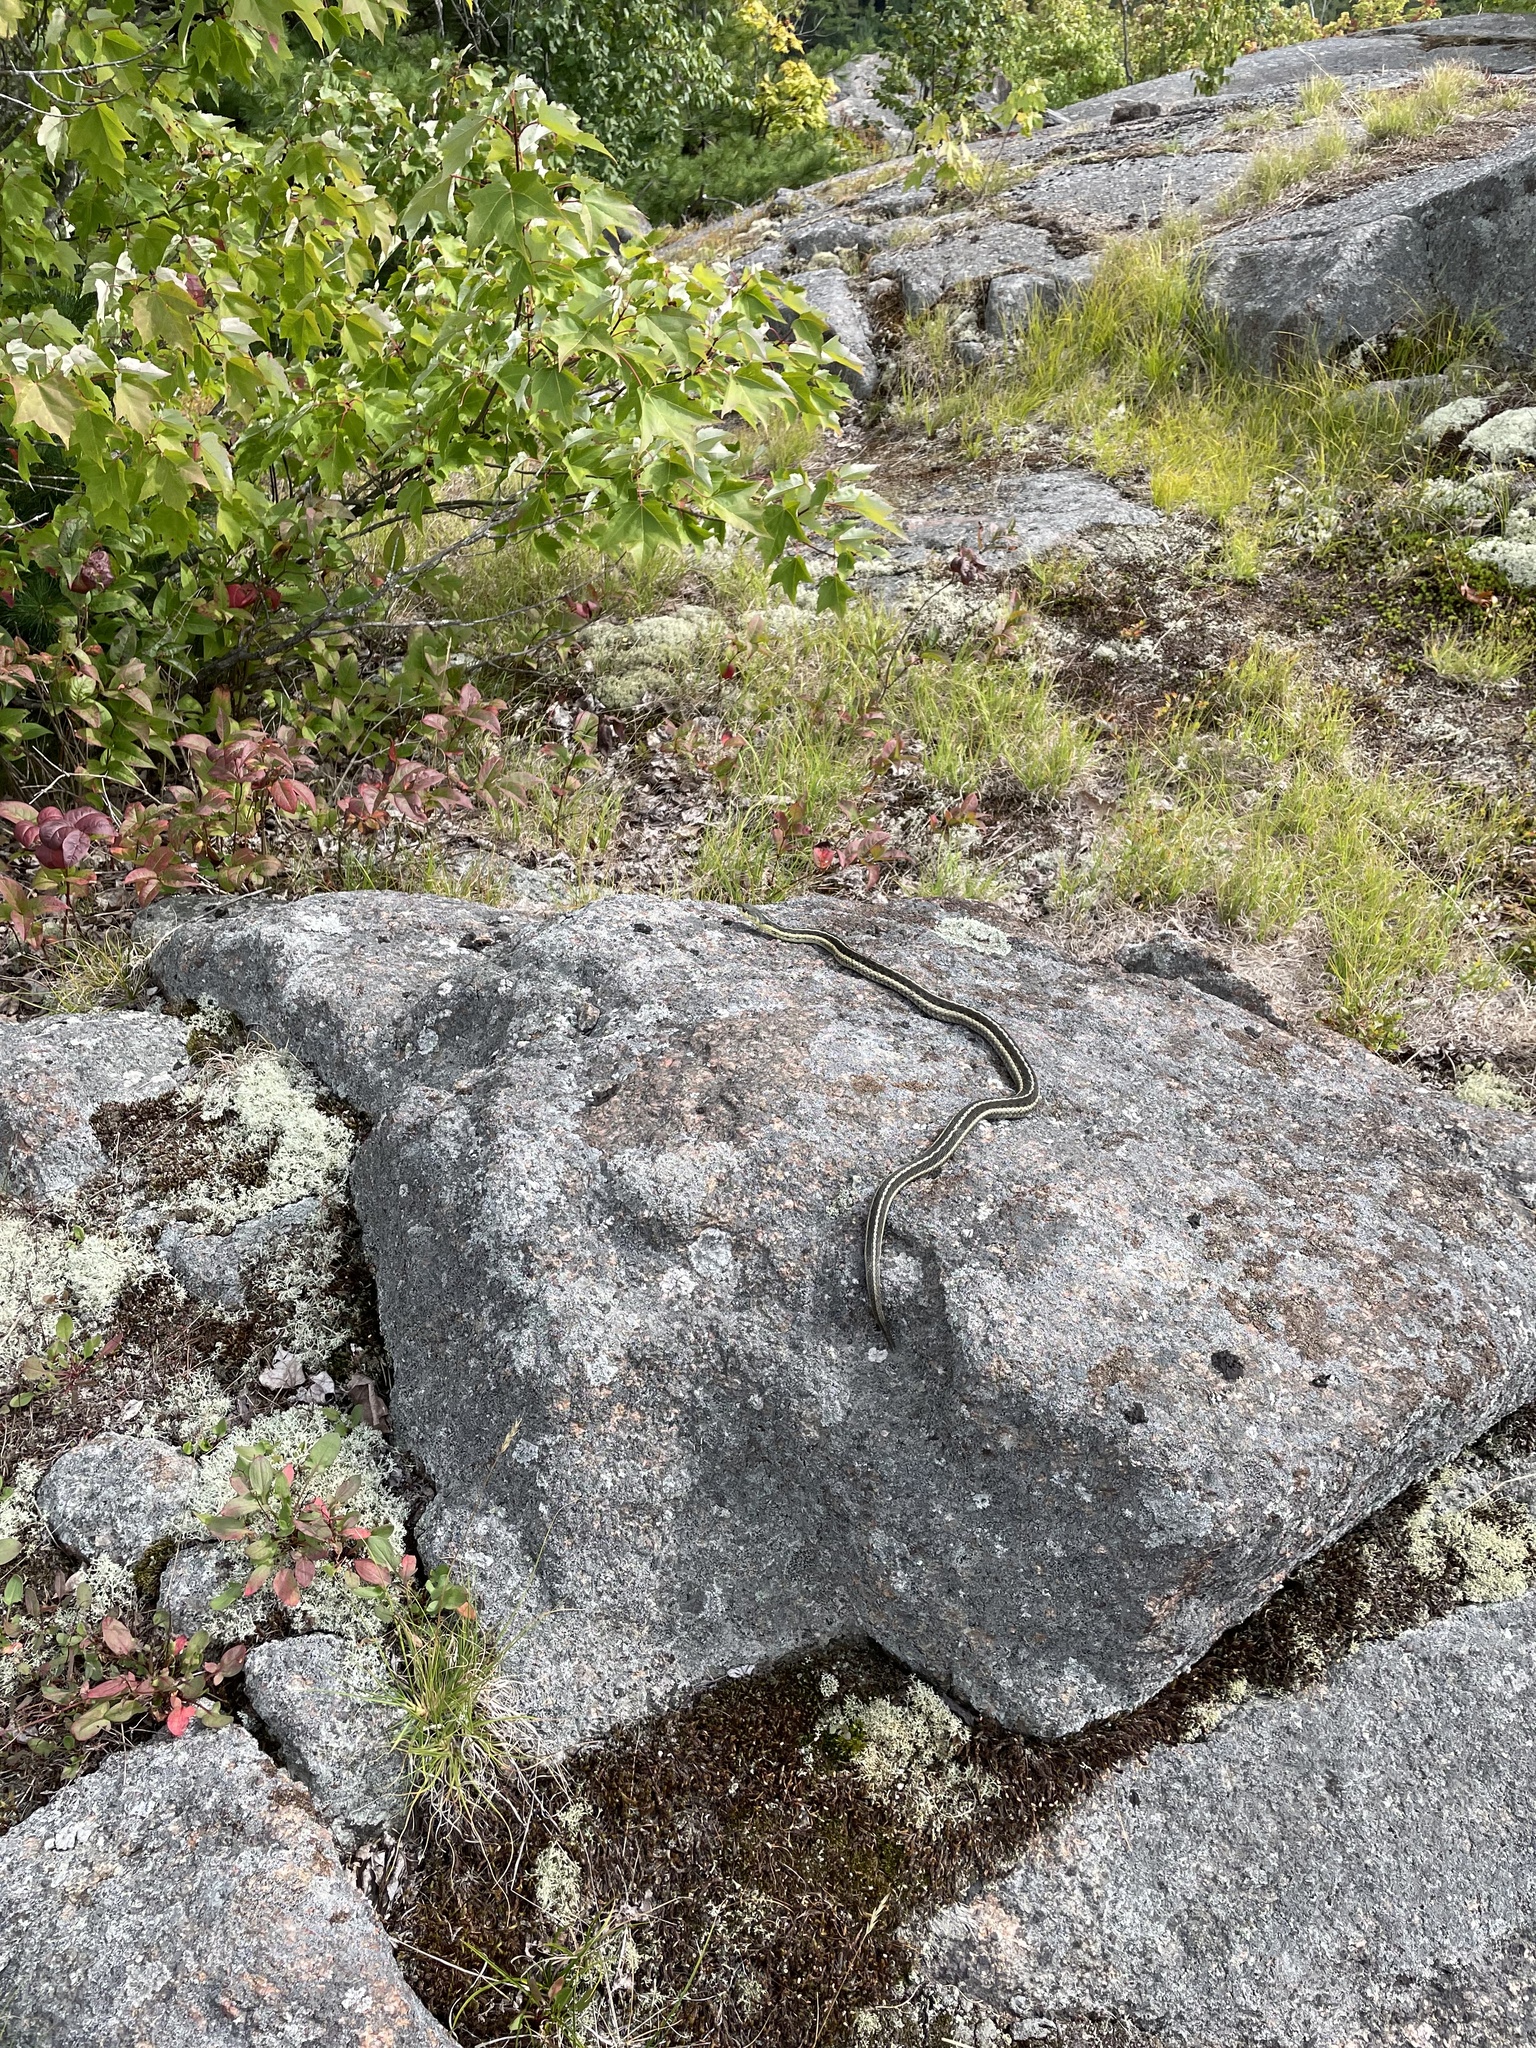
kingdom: Animalia
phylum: Chordata
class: Squamata
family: Colubridae
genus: Thamnophis
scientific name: Thamnophis sirtalis
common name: Common garter snake
